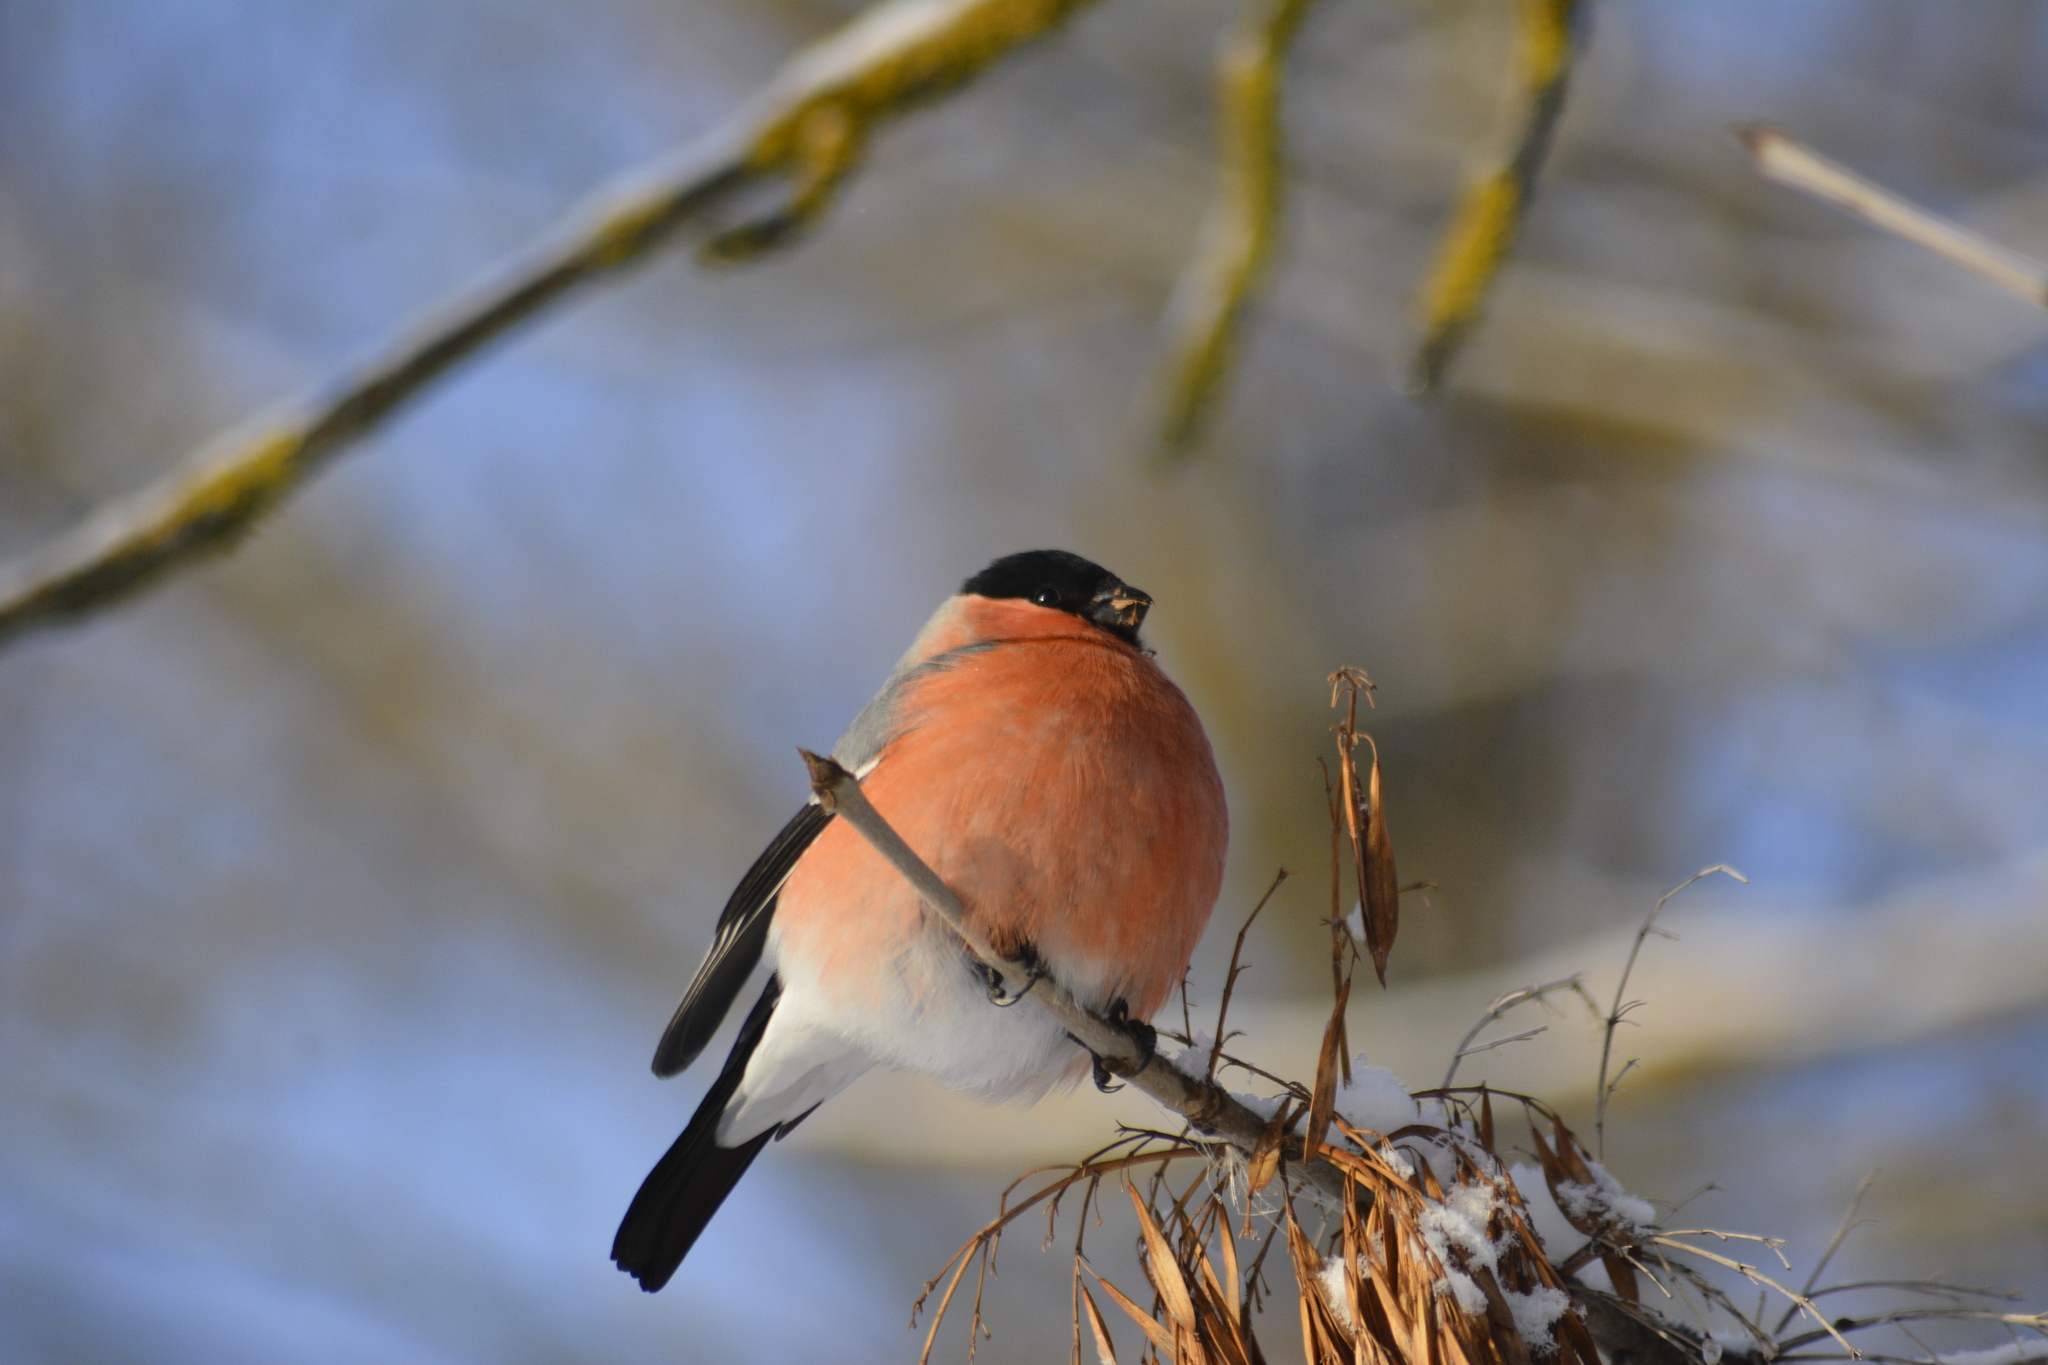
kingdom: Animalia
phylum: Chordata
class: Aves
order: Passeriformes
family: Fringillidae
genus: Pyrrhula
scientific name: Pyrrhula pyrrhula
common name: Eurasian bullfinch
